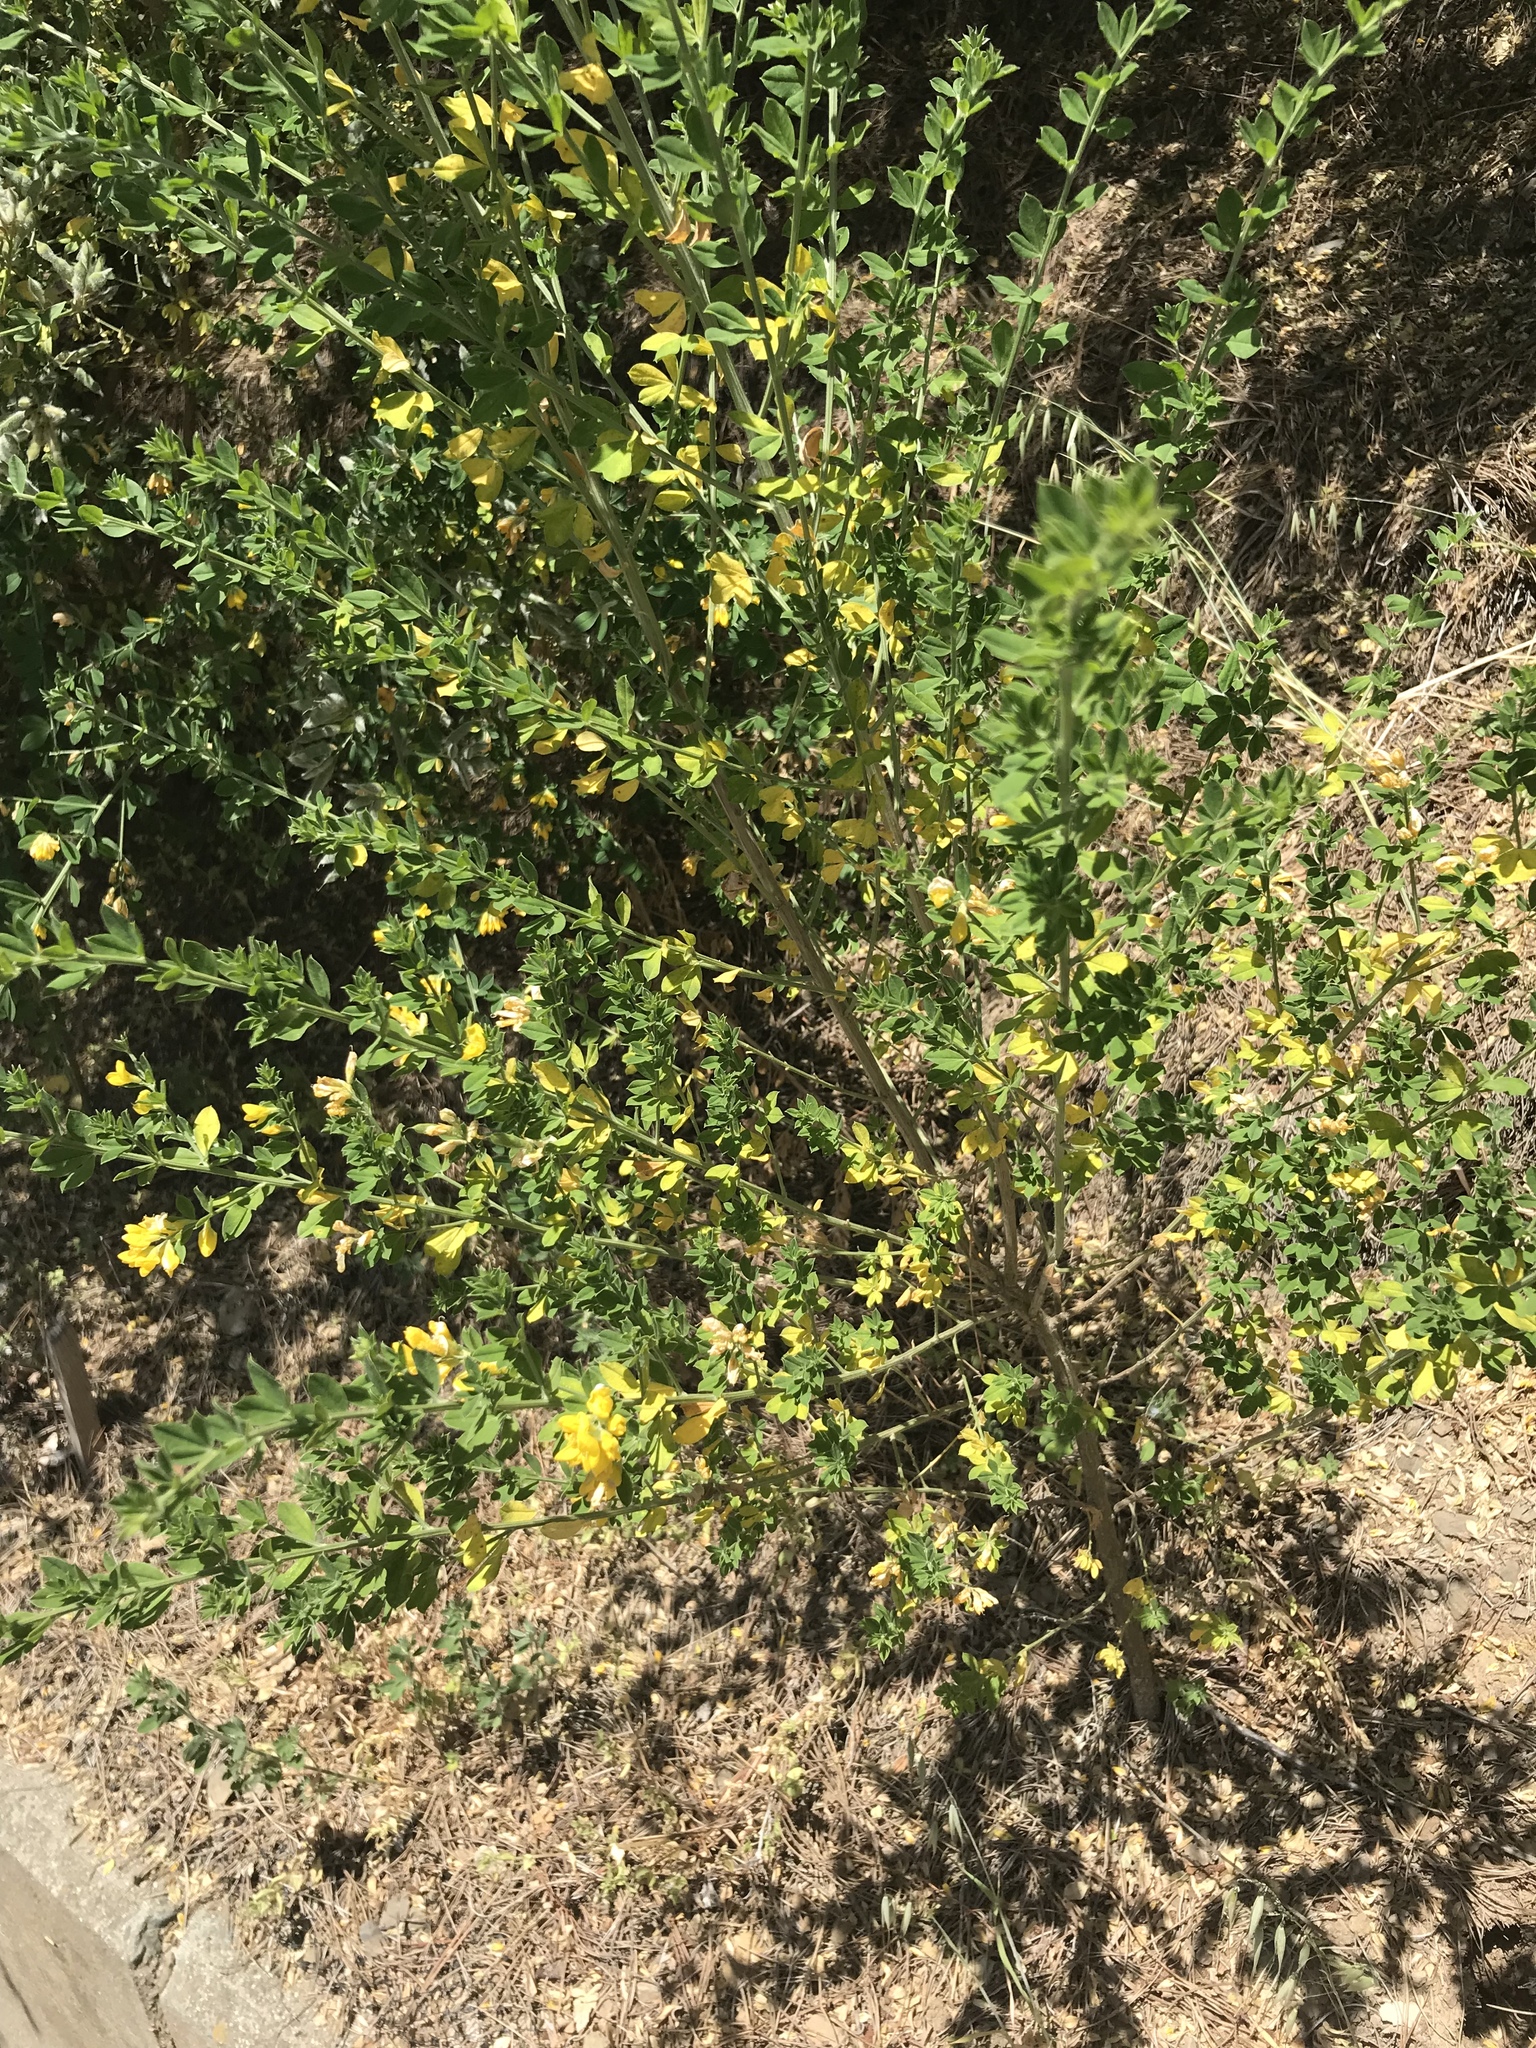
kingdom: Plantae
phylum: Tracheophyta
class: Magnoliopsida
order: Fabales
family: Fabaceae
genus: Genista
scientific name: Genista monspessulana
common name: Montpellier broom
